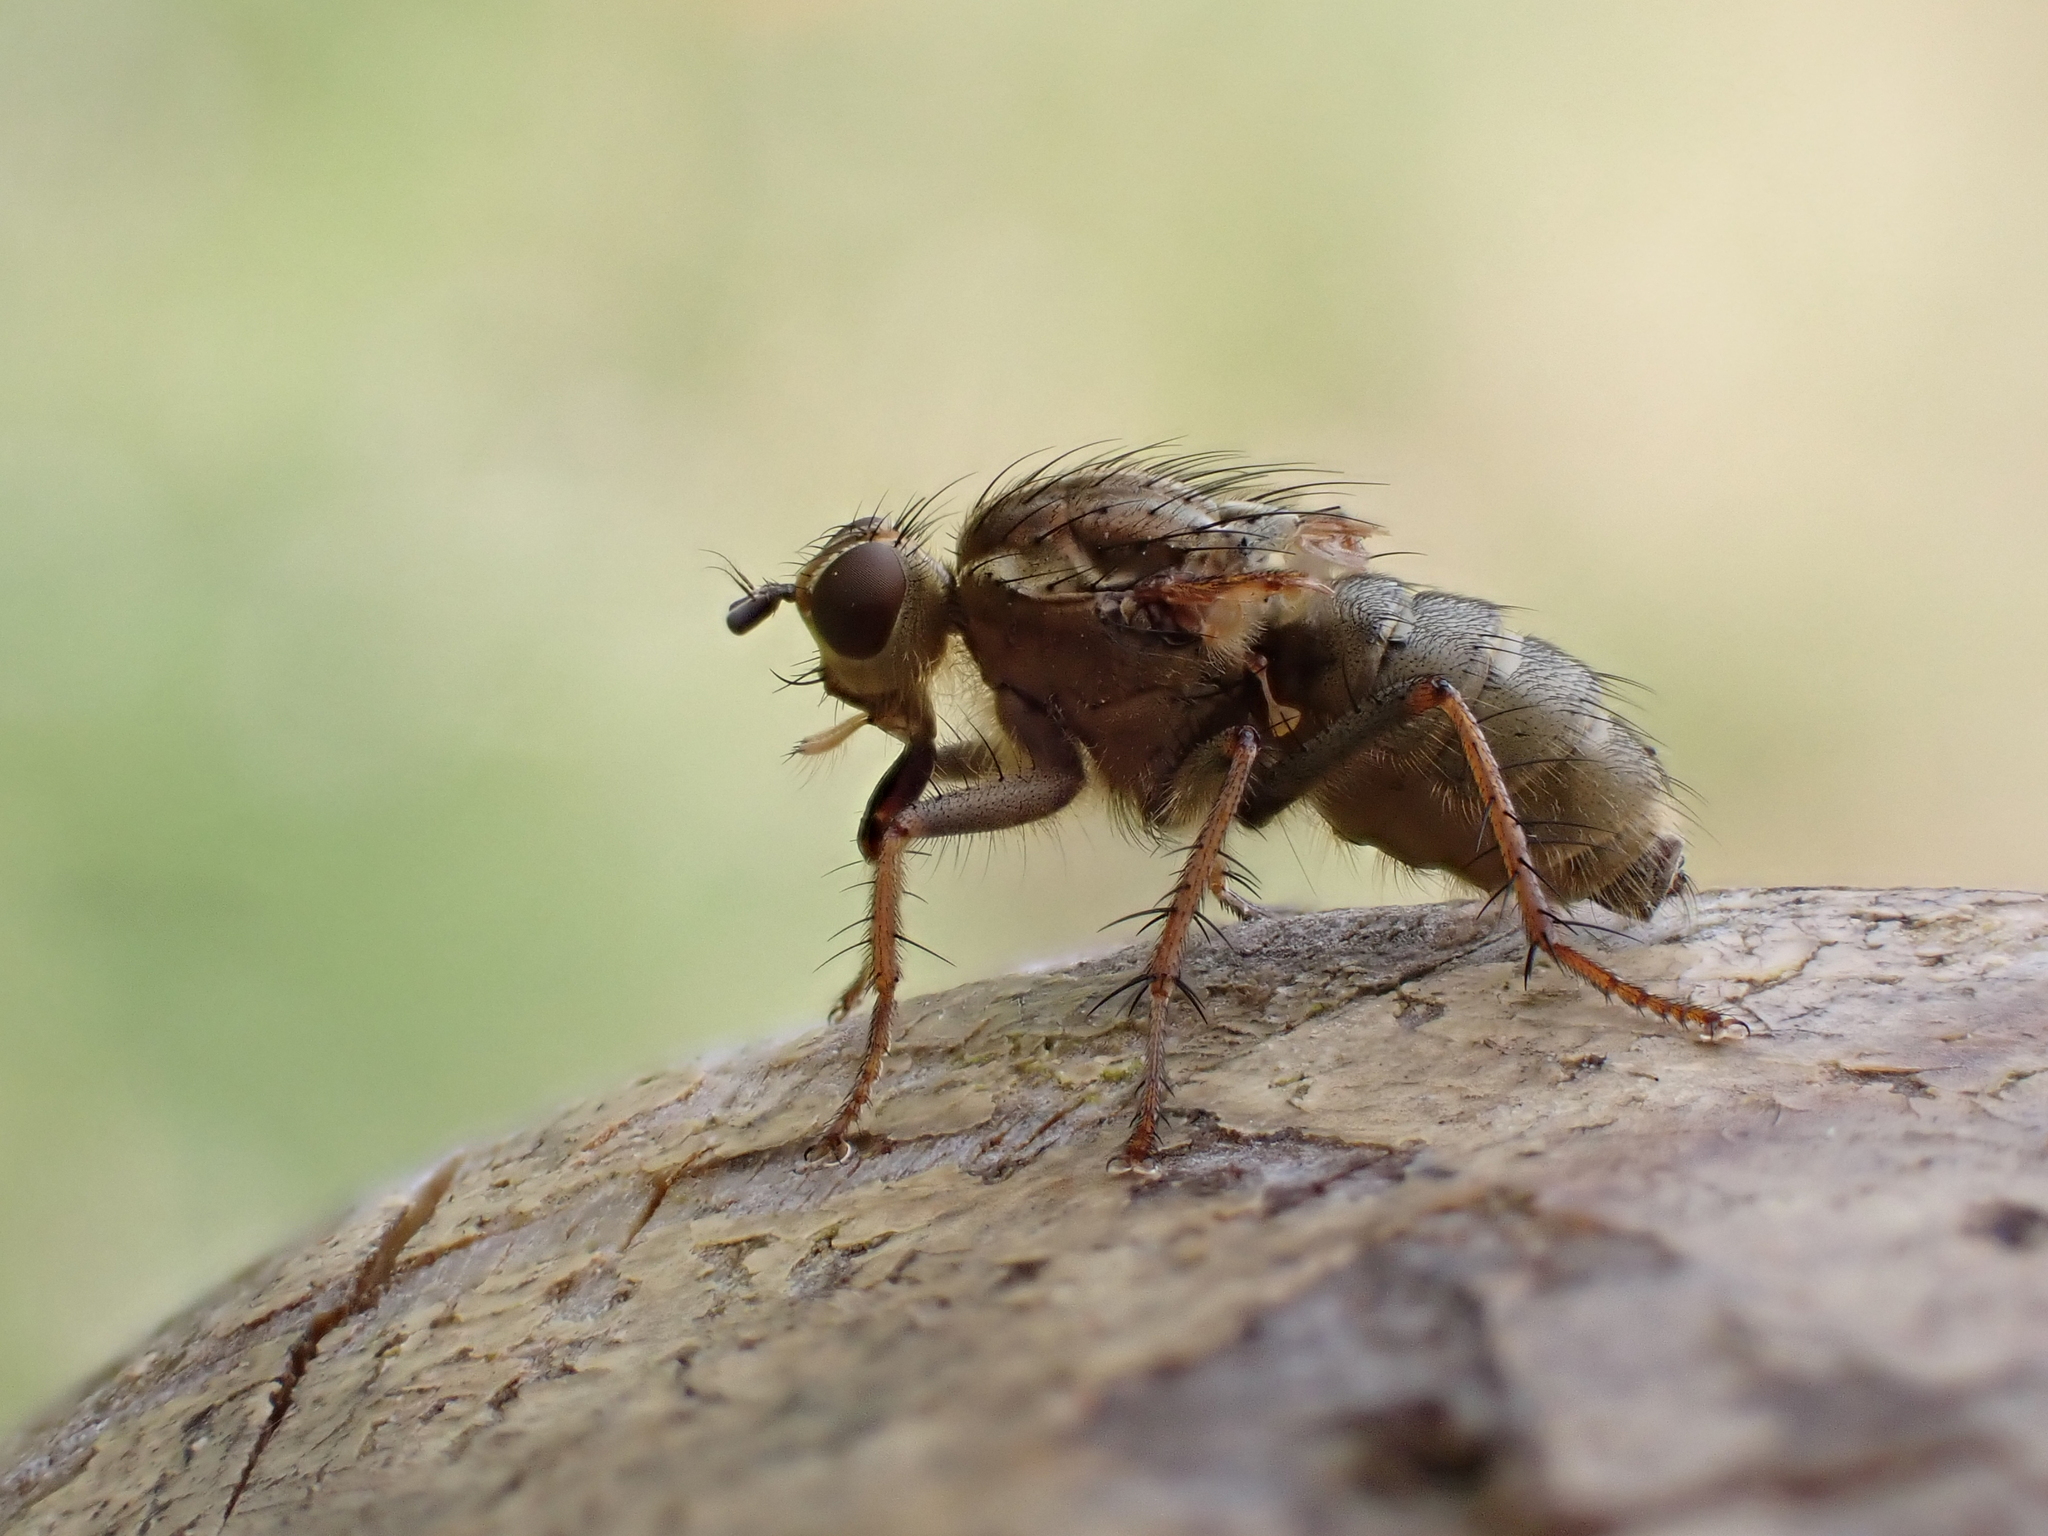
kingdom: Animalia
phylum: Arthropoda
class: Insecta
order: Diptera
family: Scathophagidae
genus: Scathophaga
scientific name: Scathophaga stercoraria
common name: Yellow dung fly
